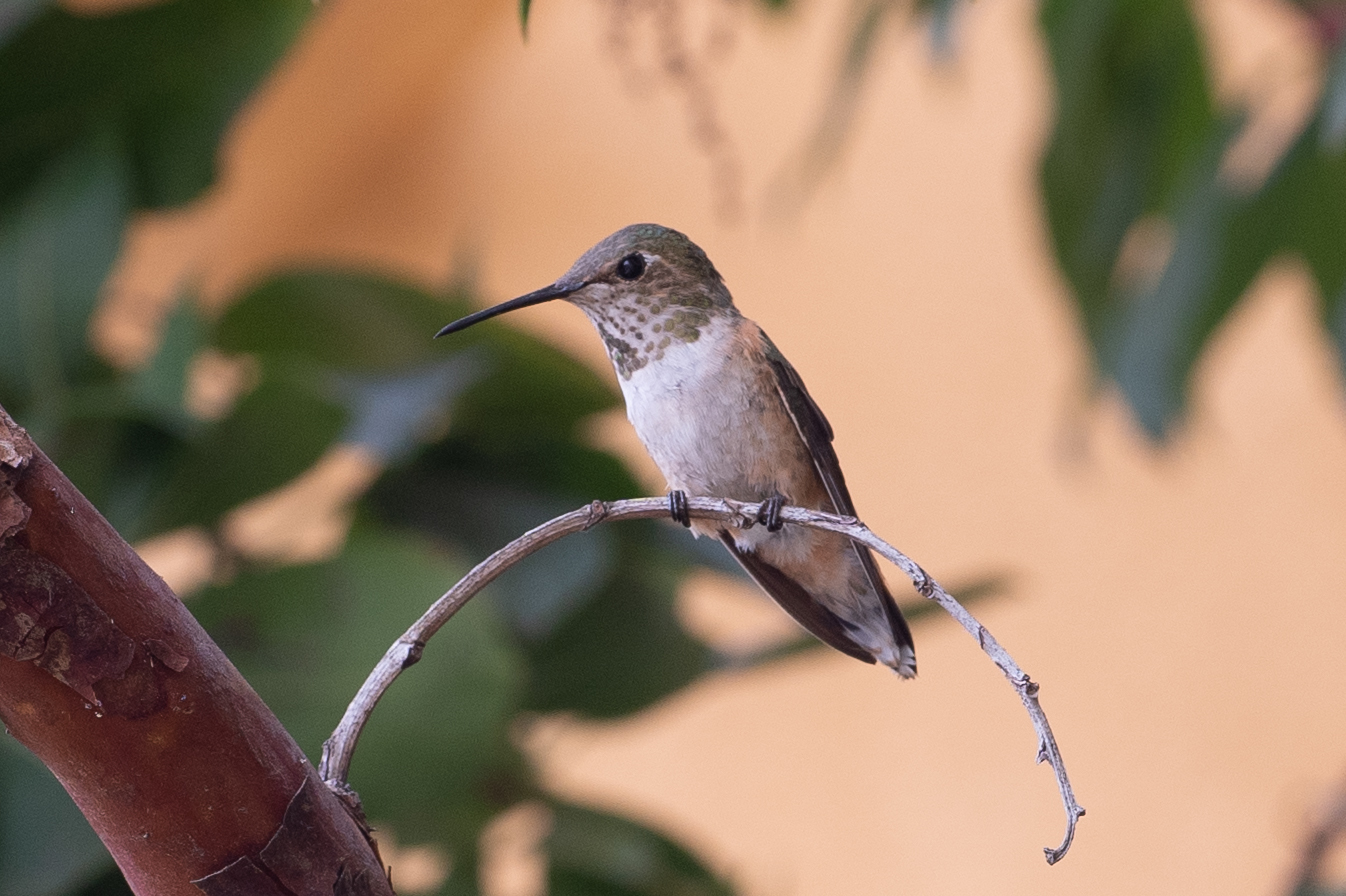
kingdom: Animalia
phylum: Chordata
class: Aves
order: Apodiformes
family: Trochilidae
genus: Selasphorus
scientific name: Selasphorus
